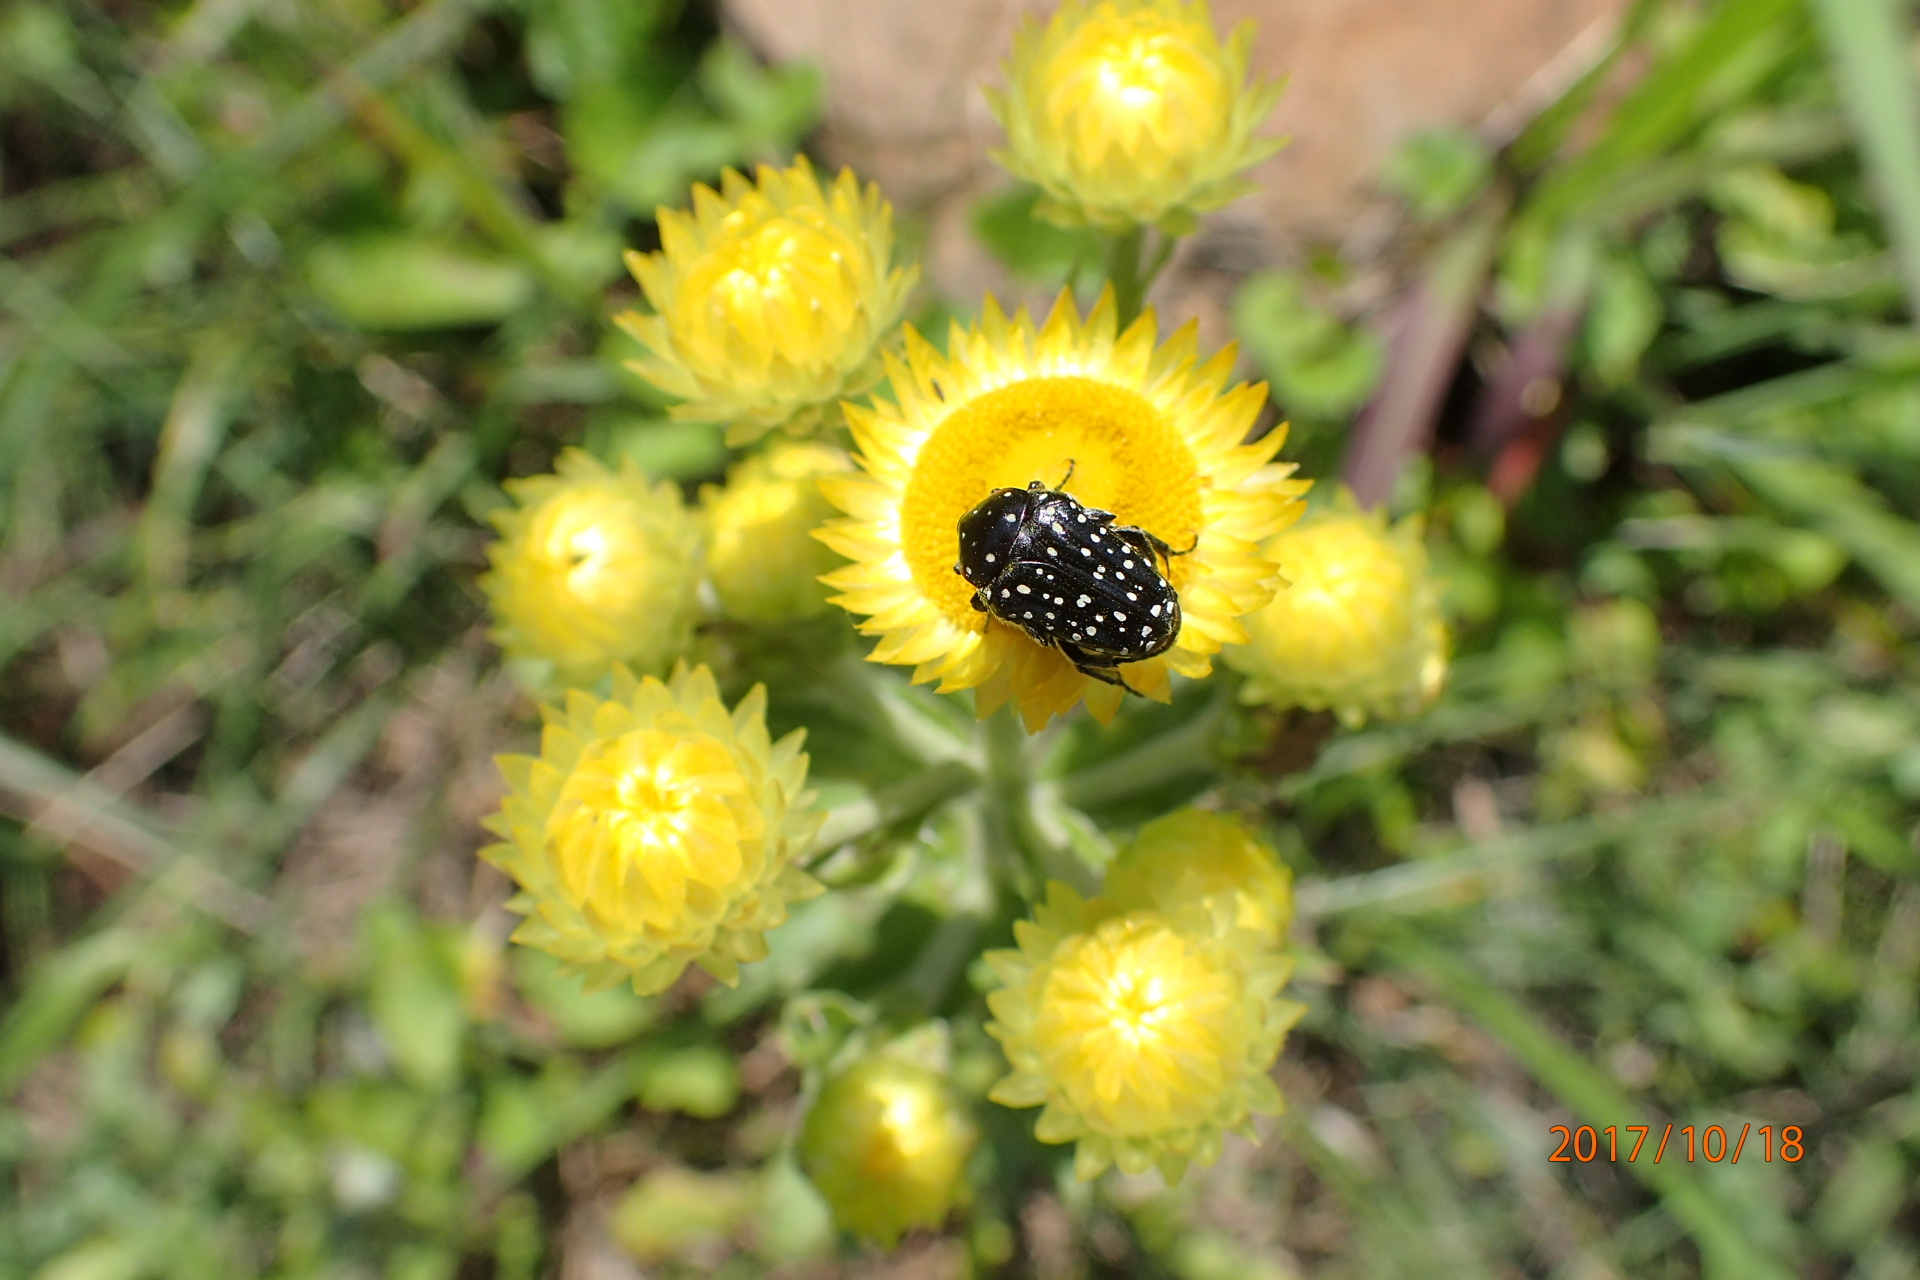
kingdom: Animalia
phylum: Arthropoda
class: Insecta
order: Coleoptera
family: Scarabaeidae
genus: Oxythyrea
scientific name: Oxythyrea
